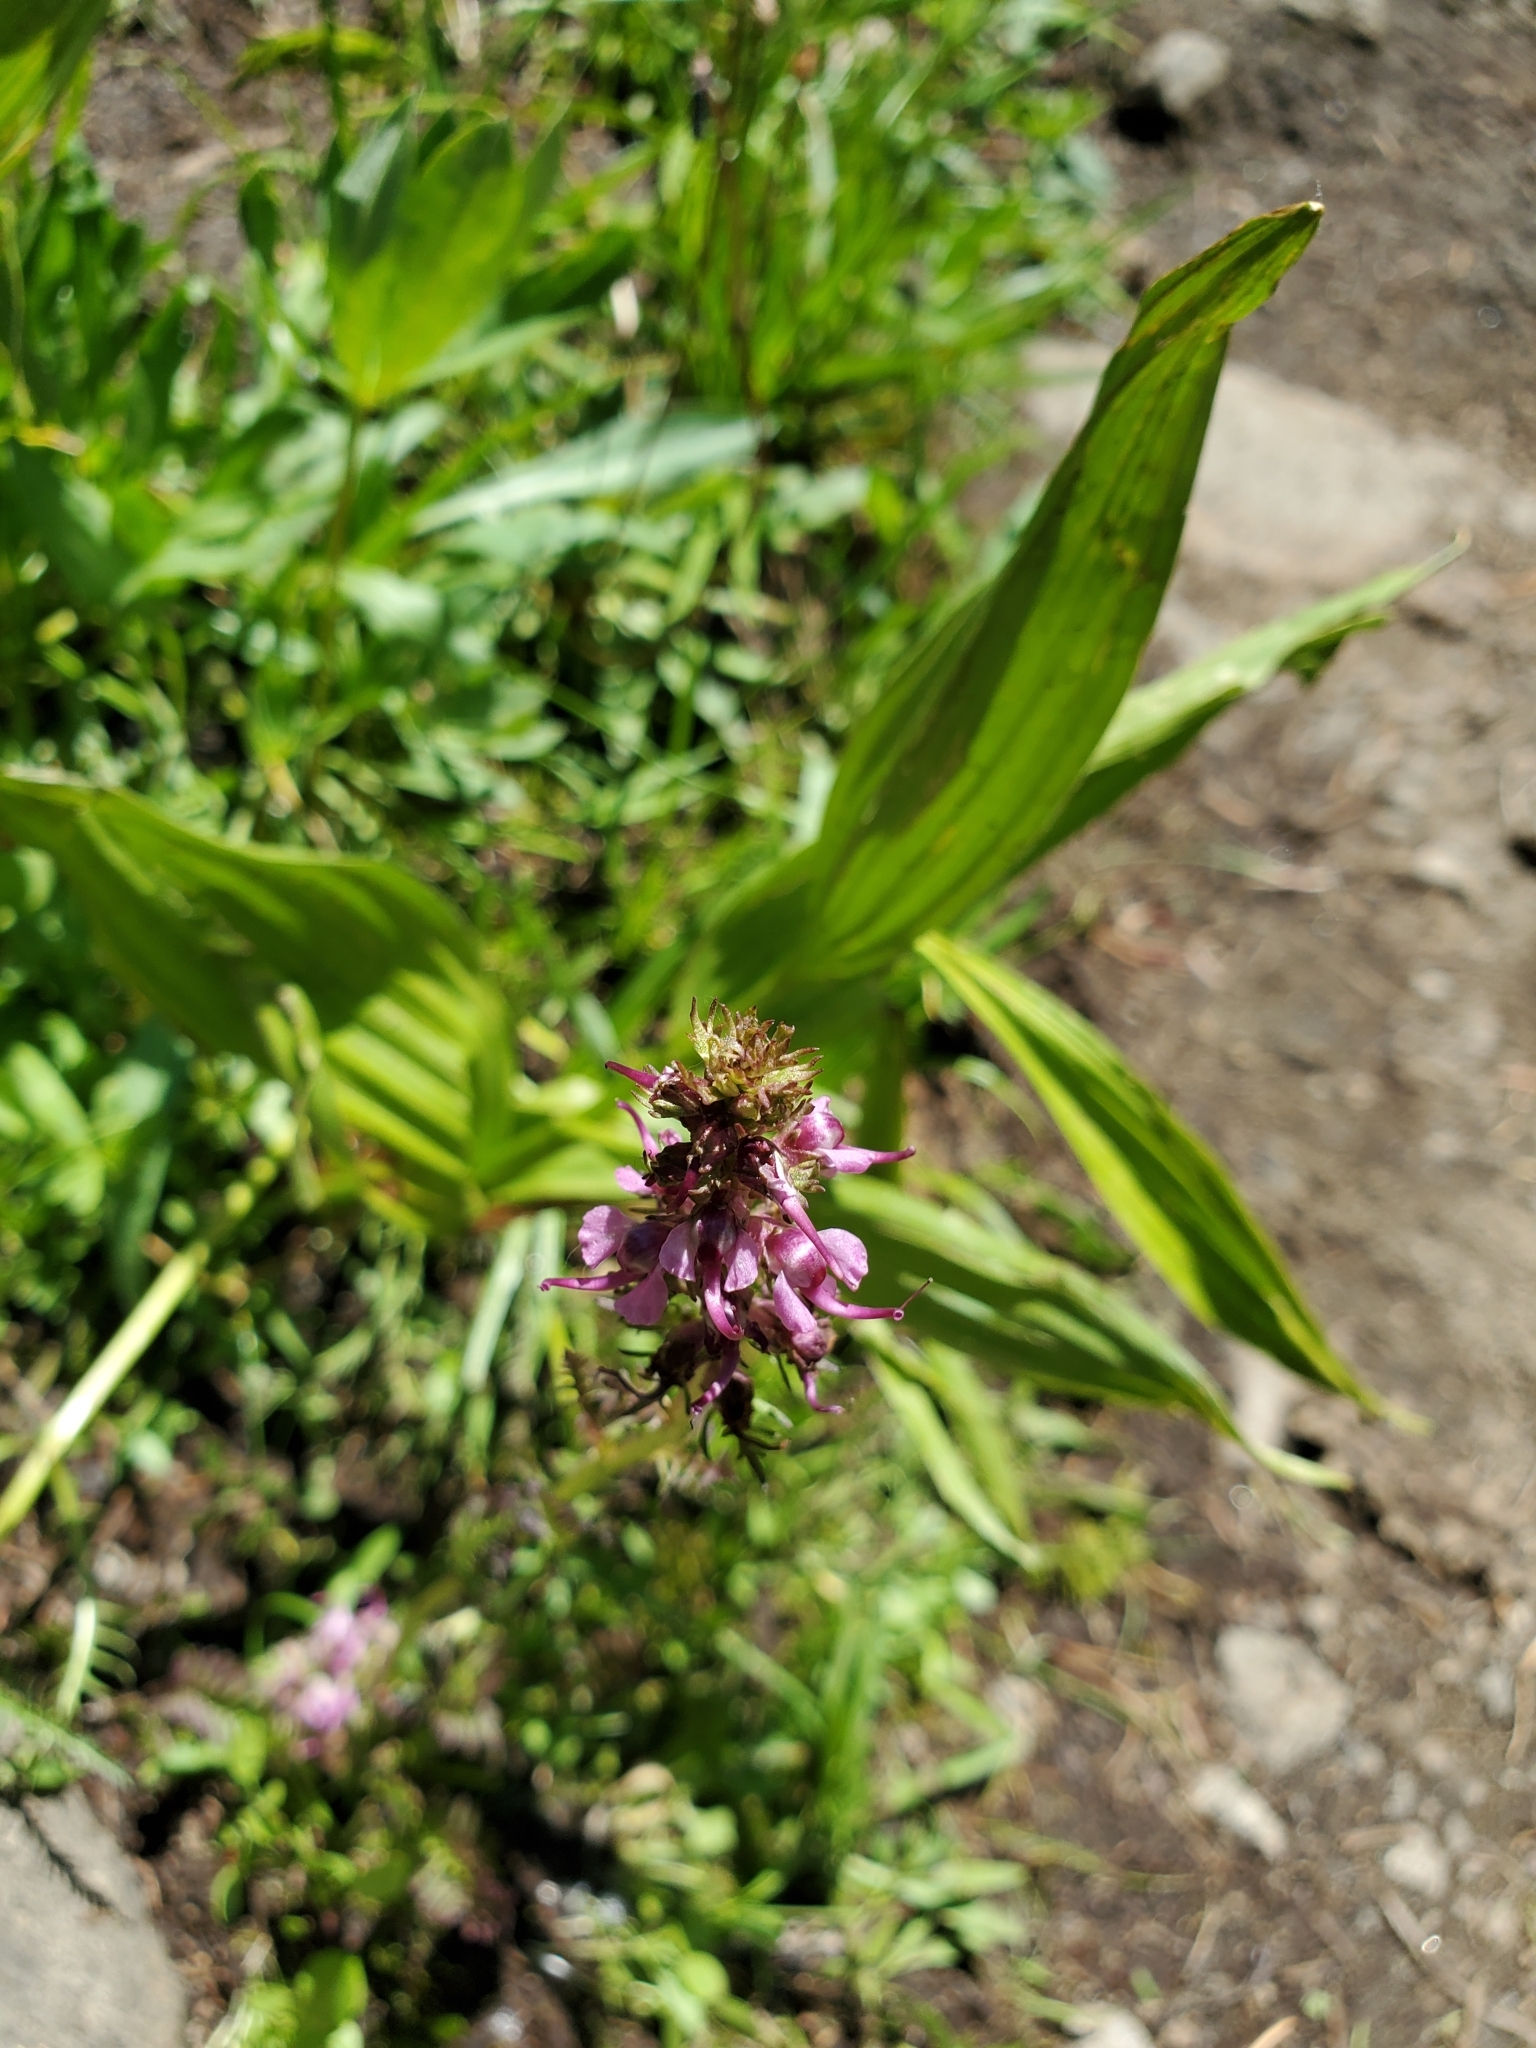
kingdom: Plantae
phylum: Tracheophyta
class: Magnoliopsida
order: Lamiales
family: Orobanchaceae
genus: Pedicularis
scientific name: Pedicularis groenlandica
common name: Elephant's-head
